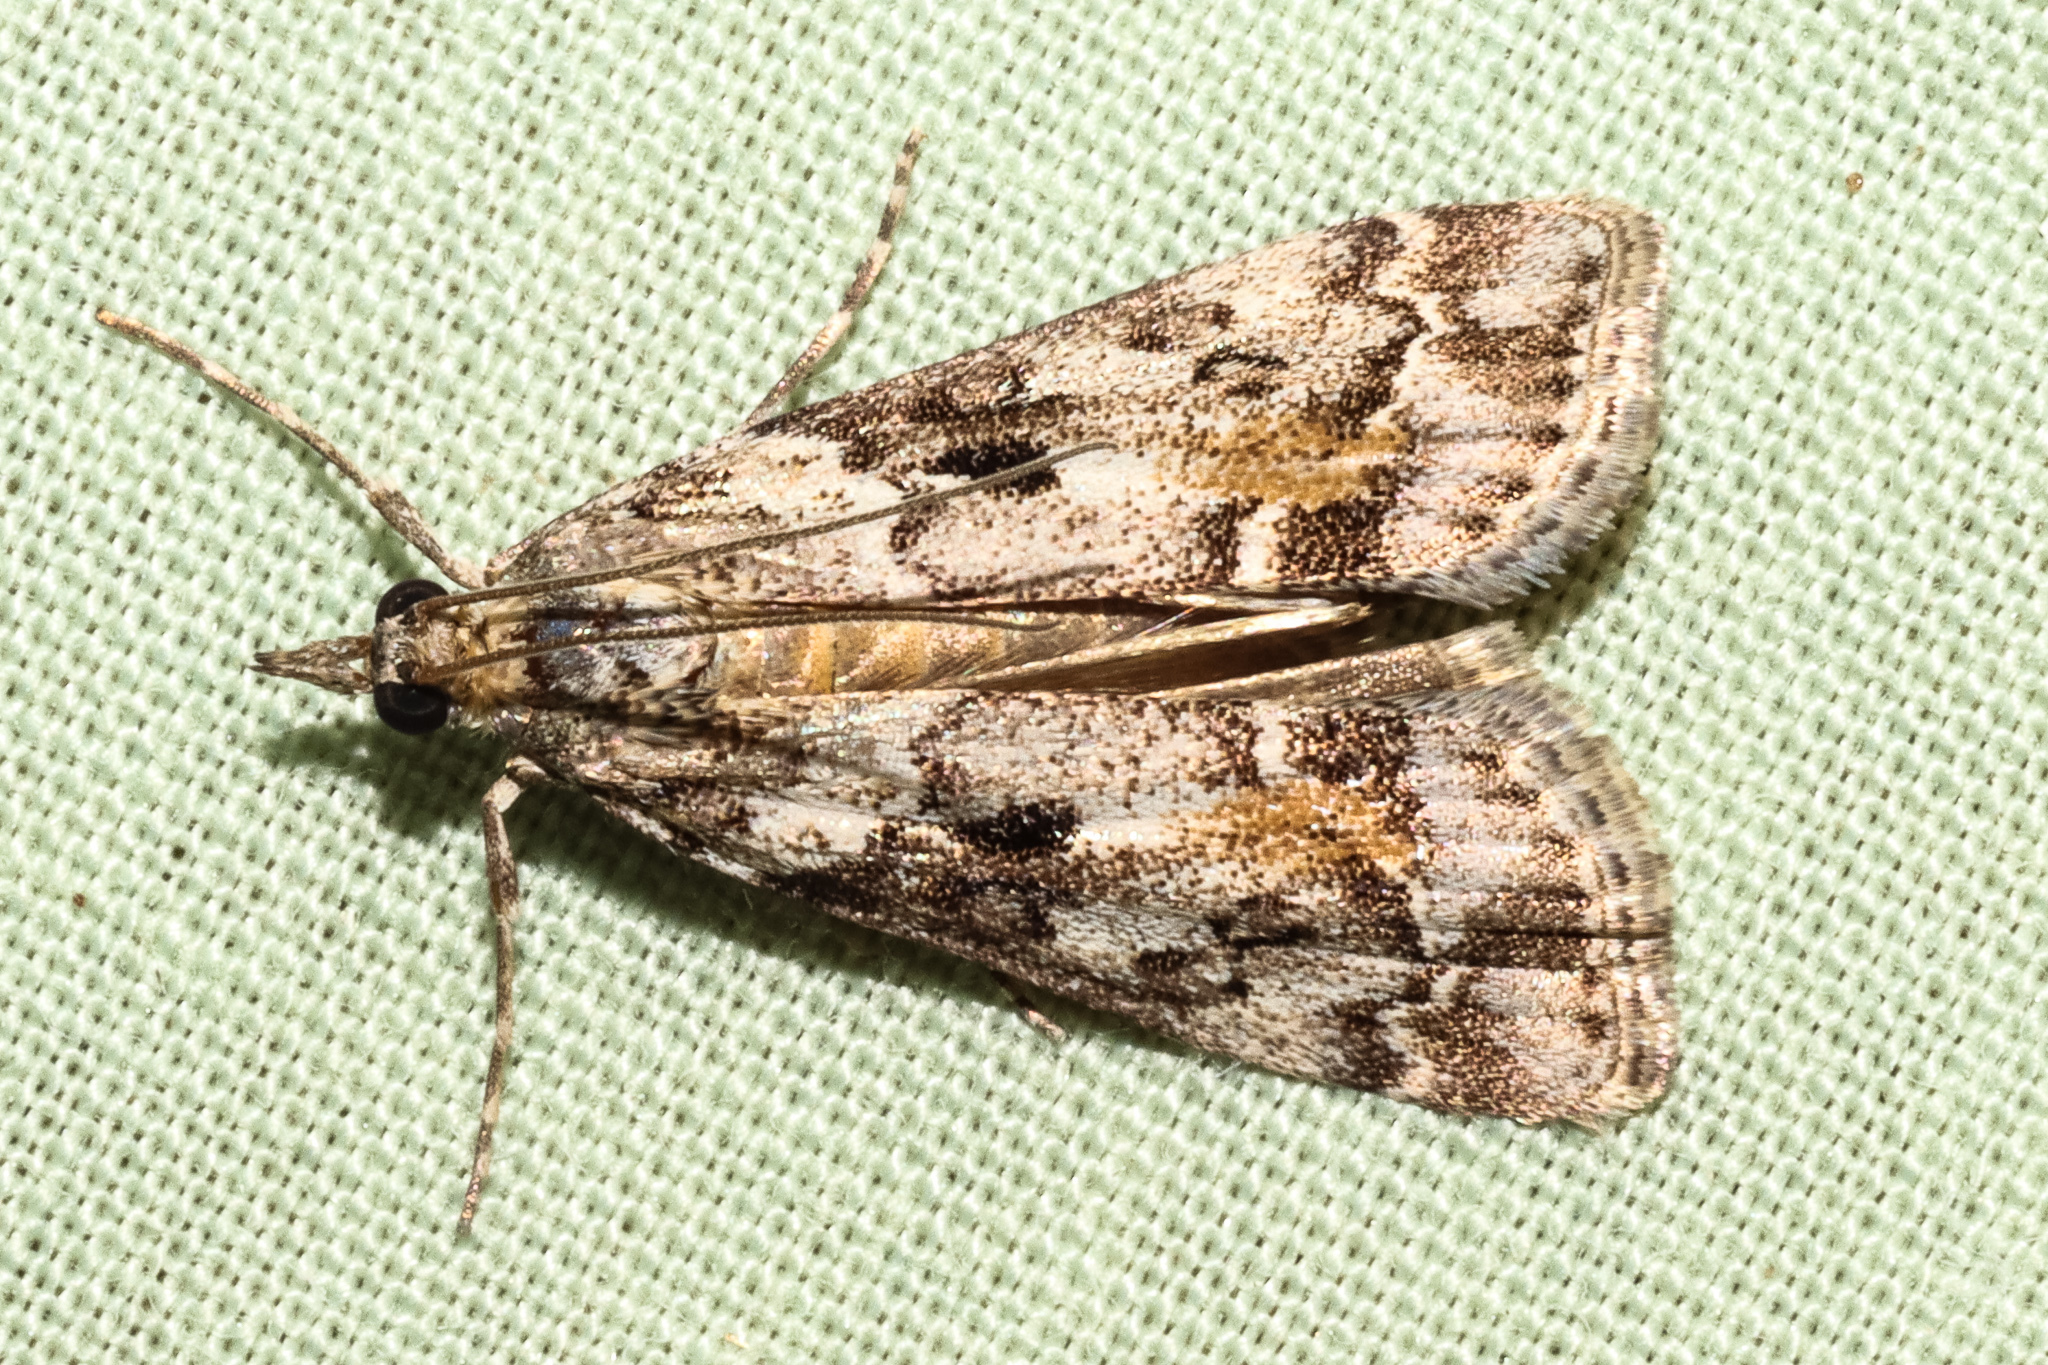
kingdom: Animalia
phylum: Arthropoda
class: Insecta
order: Lepidoptera
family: Crambidae
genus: Eudonia
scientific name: Eudonia submarginalis
